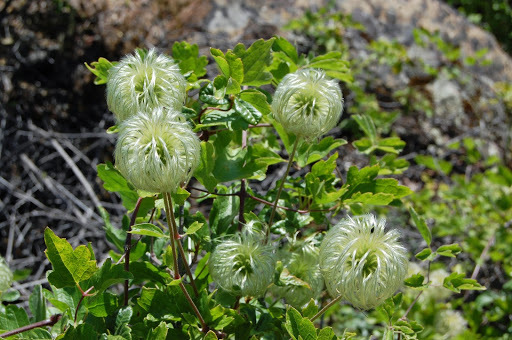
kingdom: Plantae
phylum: Tracheophyta
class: Magnoliopsida
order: Ranunculales
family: Ranunculaceae
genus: Clematis
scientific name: Clematis lasiantha
